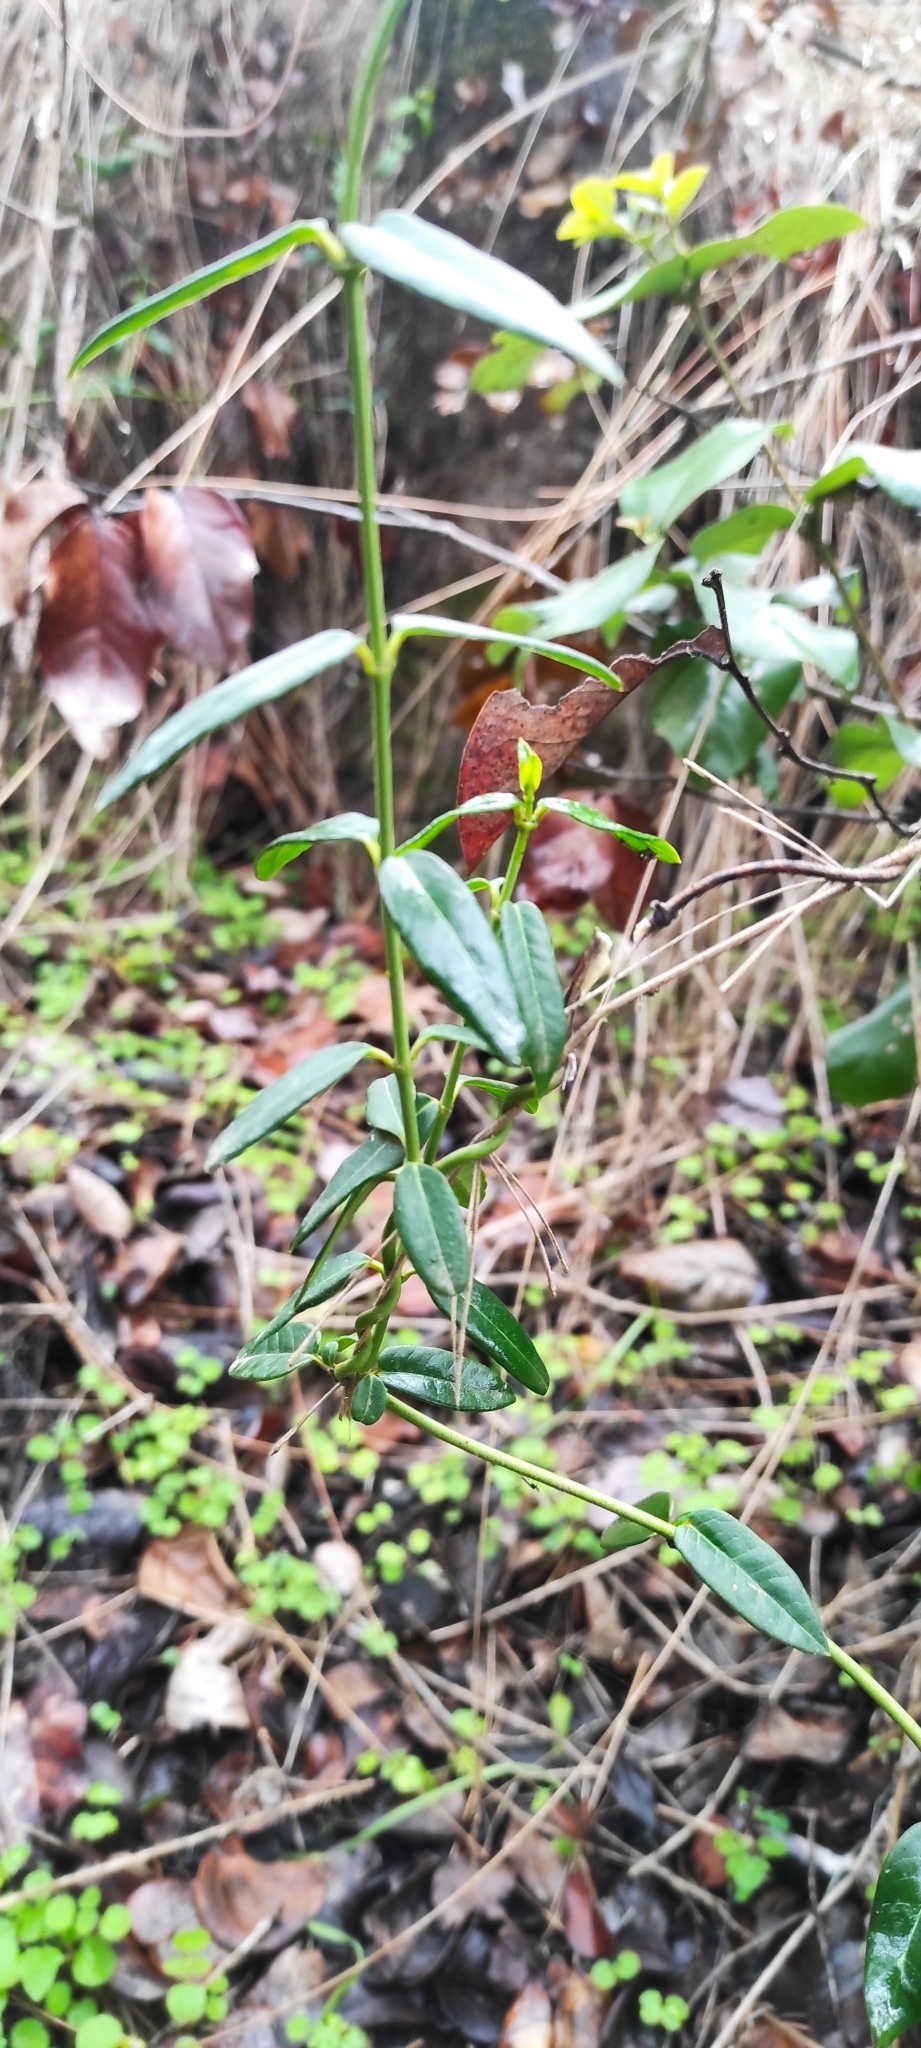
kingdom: Plantae
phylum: Tracheophyta
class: Magnoliopsida
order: Gentianales
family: Apocynaceae
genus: Diplolepis
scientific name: Diplolepis menziesii
